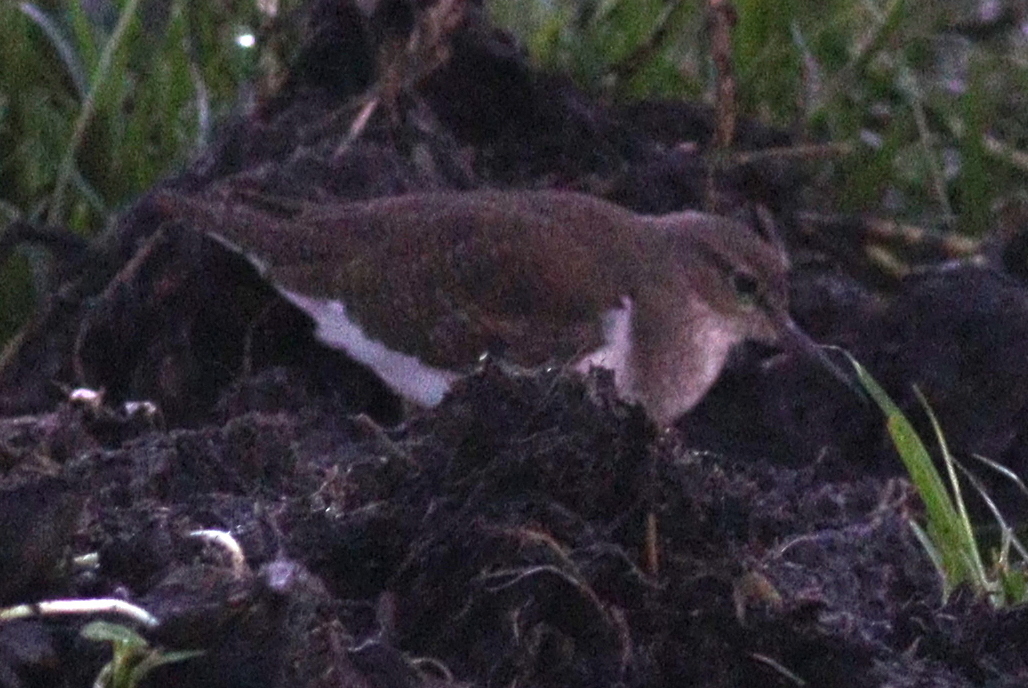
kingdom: Animalia
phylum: Chordata
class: Aves
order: Charadriiformes
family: Scolopacidae
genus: Actitis
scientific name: Actitis hypoleucos
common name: Common sandpiper
